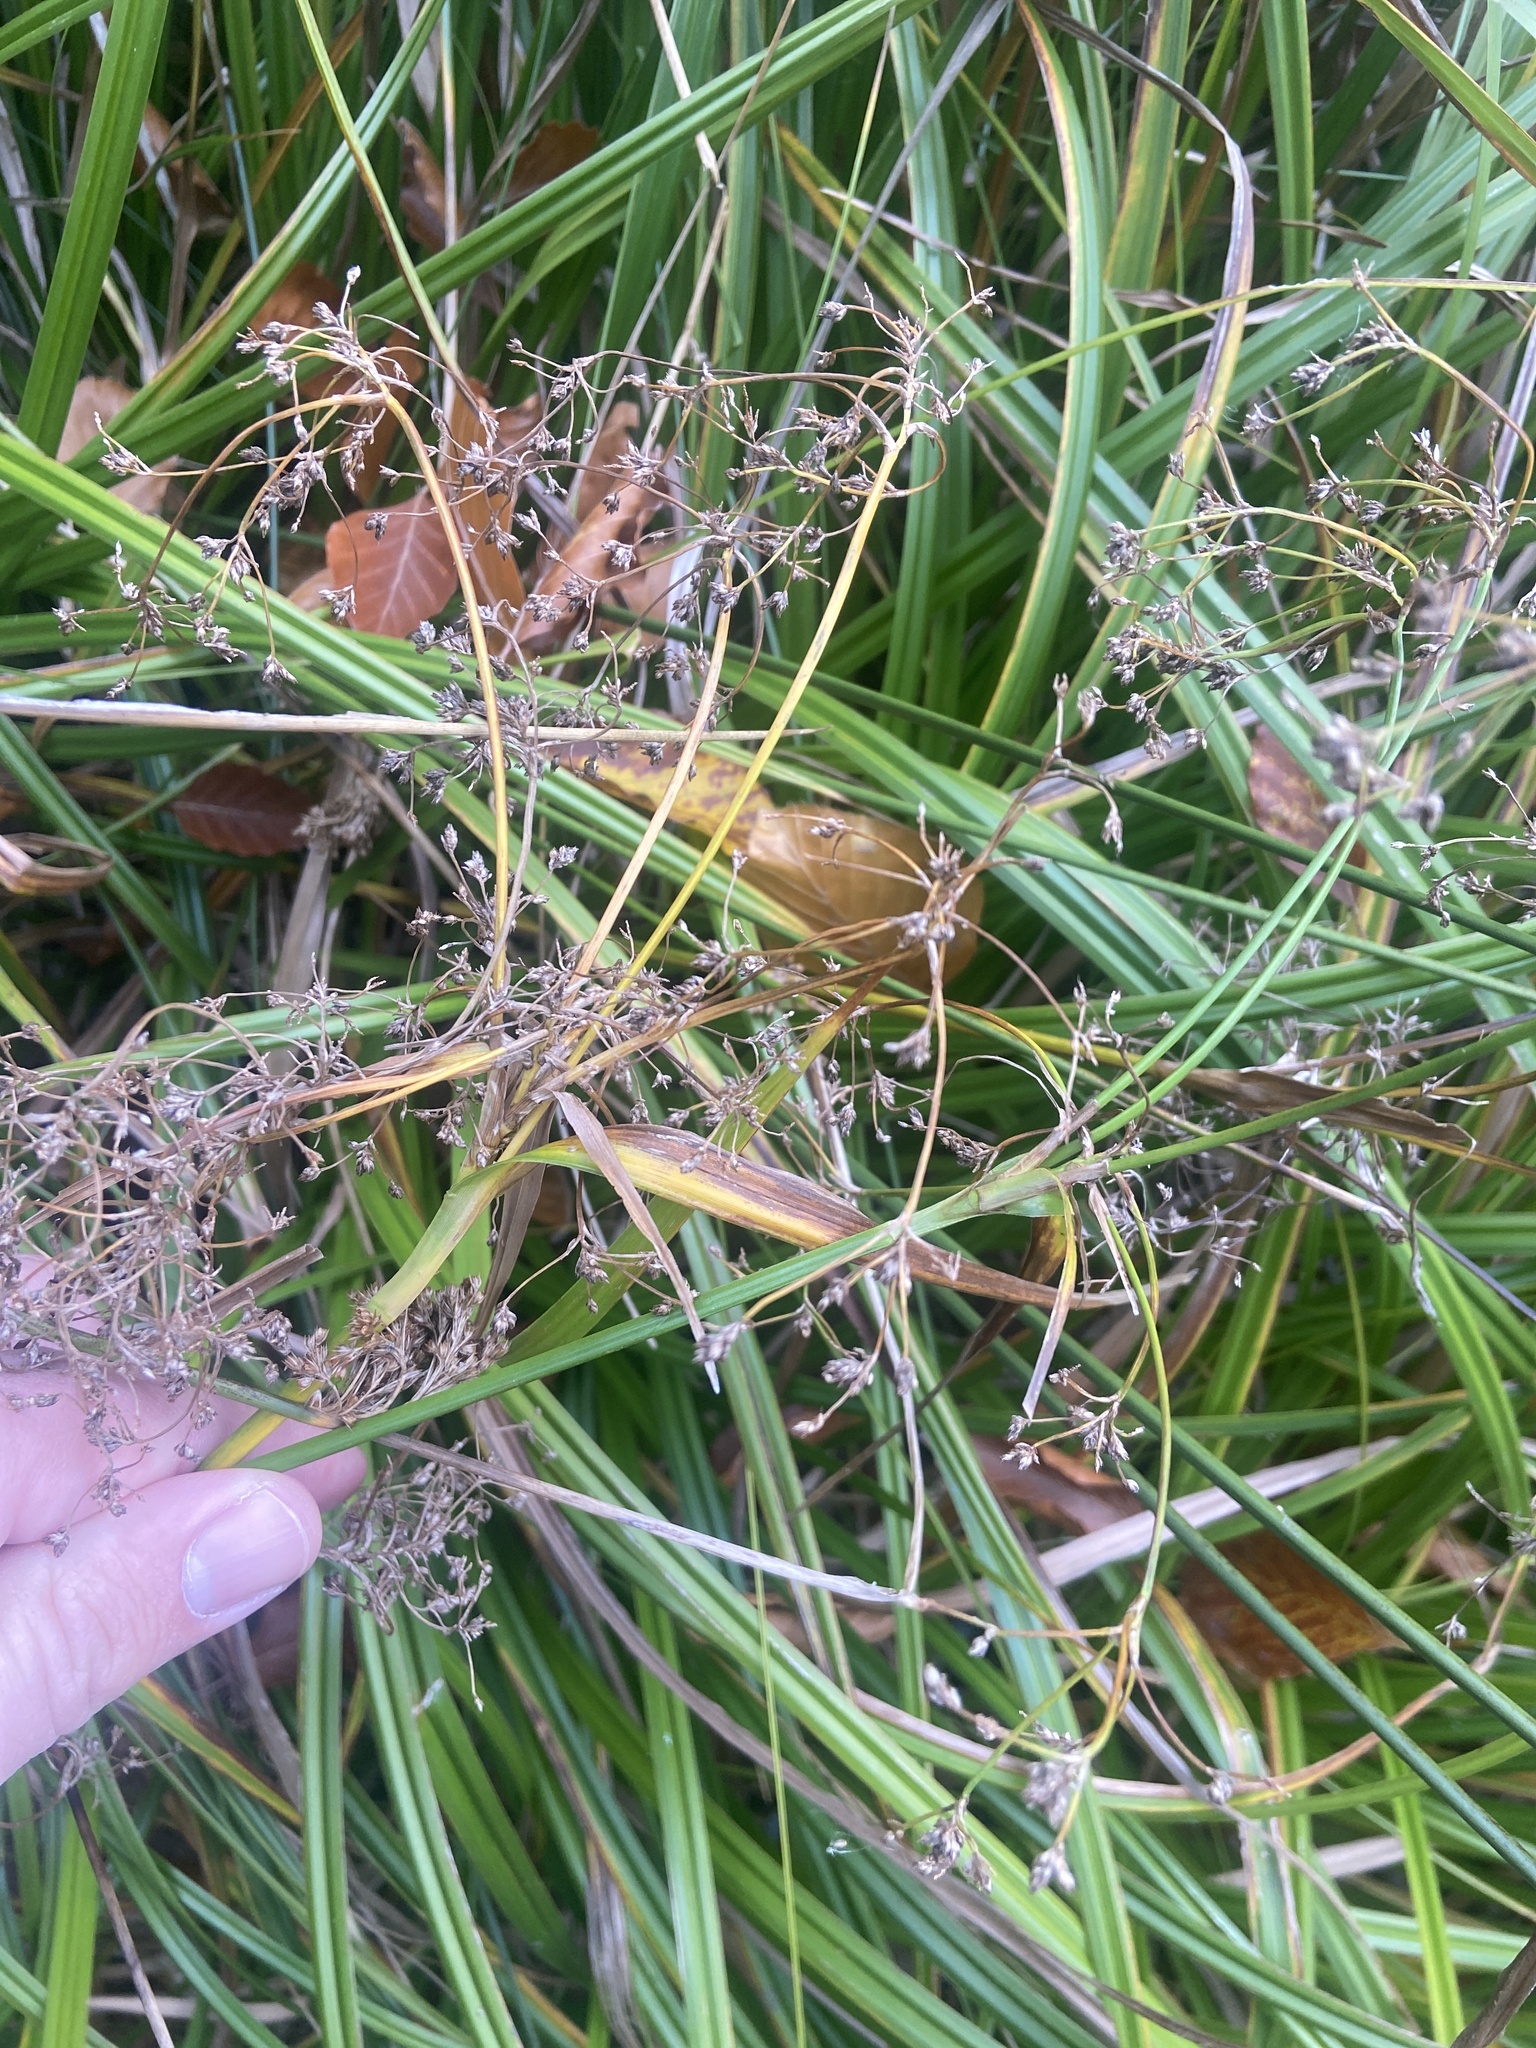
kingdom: Plantae
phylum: Tracheophyta
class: Liliopsida
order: Poales
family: Cyperaceae
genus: Scirpus
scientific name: Scirpus sylvaticus
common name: Wood club-rush
